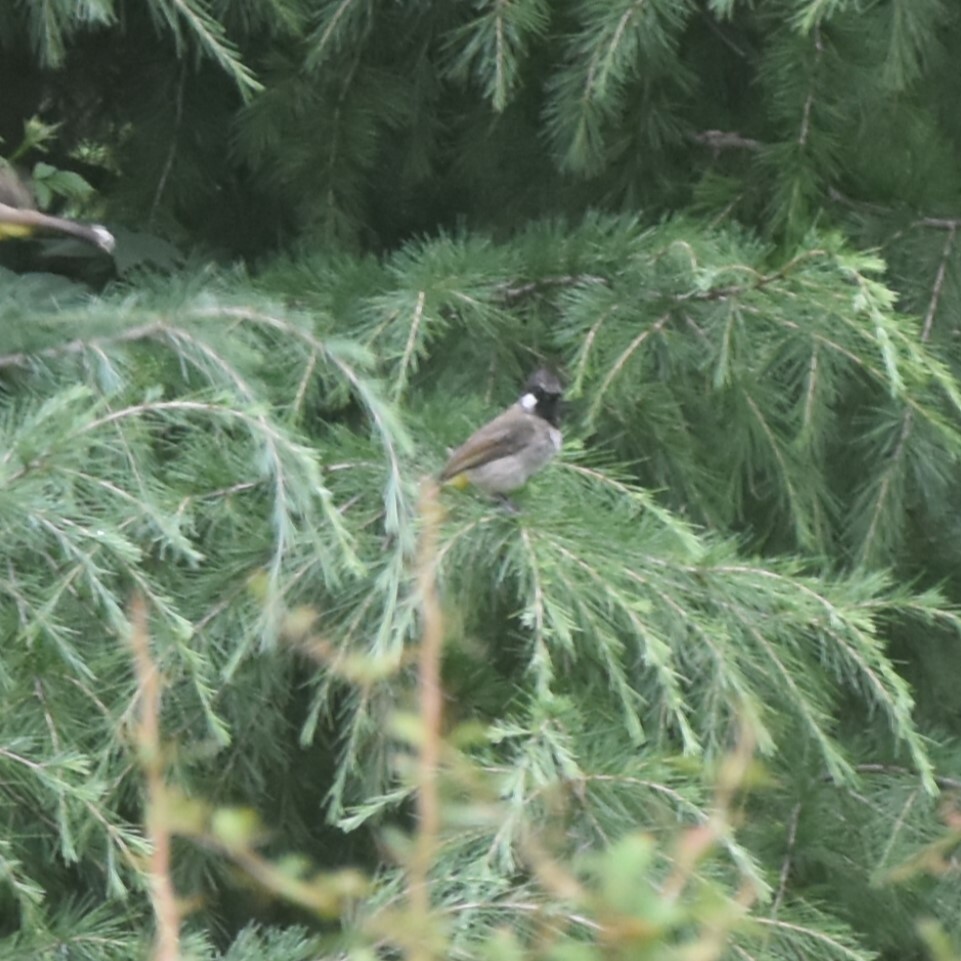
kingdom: Animalia
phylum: Chordata
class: Aves
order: Passeriformes
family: Pycnonotidae
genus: Pycnonotus
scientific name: Pycnonotus leucogenys
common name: Himalayan bulbul
